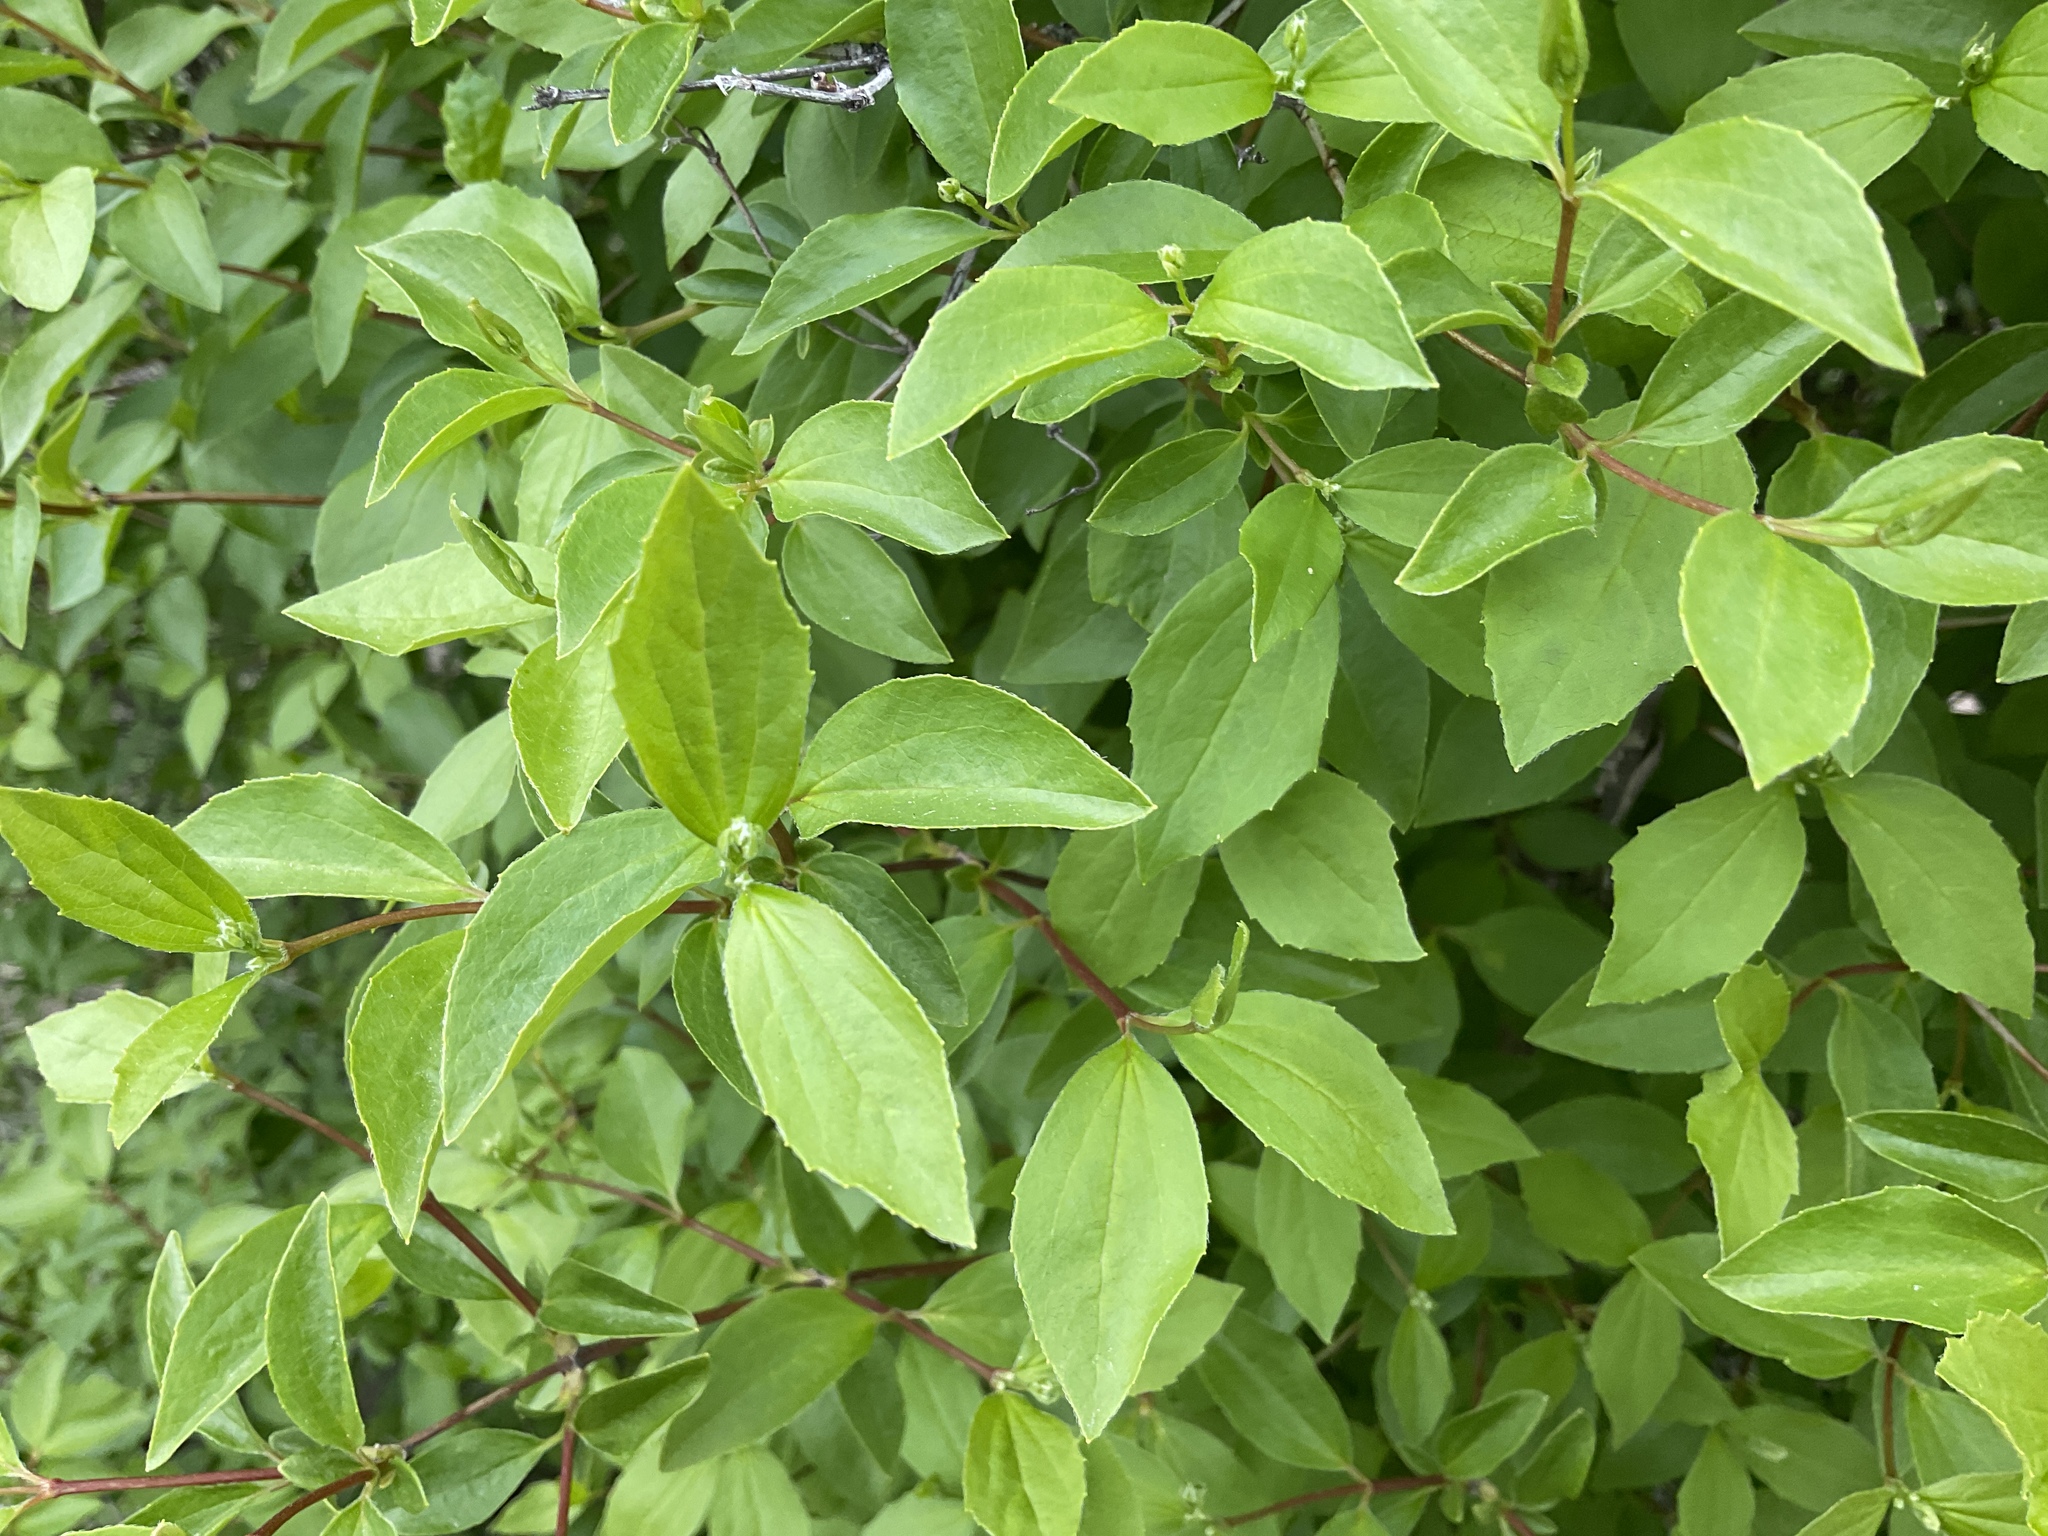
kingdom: Plantae
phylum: Tracheophyta
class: Magnoliopsida
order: Cornales
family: Hydrangeaceae
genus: Philadelphus
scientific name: Philadelphus lewisii
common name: Lewis's mock orange
